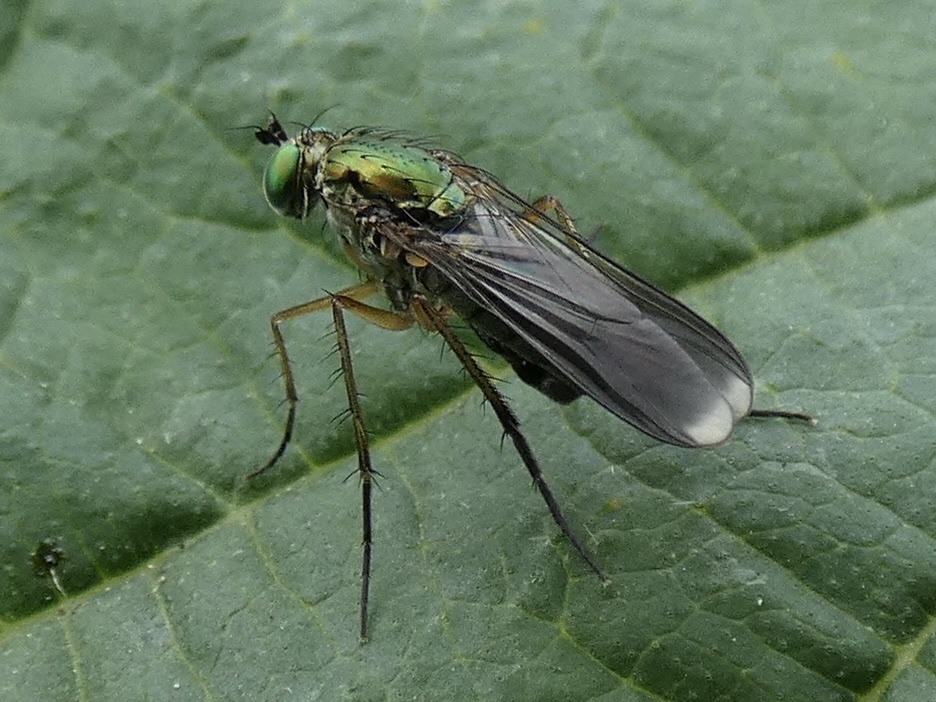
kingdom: Animalia
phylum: Arthropoda
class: Insecta
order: Diptera
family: Dolichopodidae
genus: Poecilobothrus
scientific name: Poecilobothrus nobilitatus
